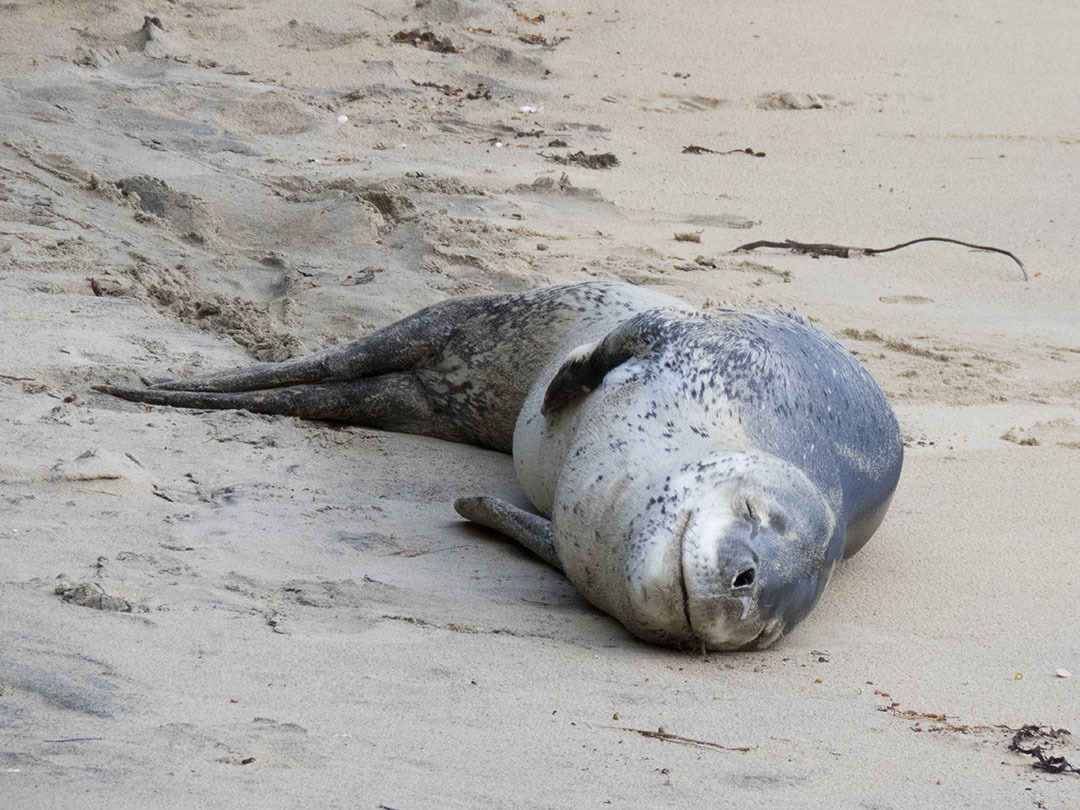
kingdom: Animalia
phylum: Chordata
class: Mammalia
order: Carnivora
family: Phocidae
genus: Hydrurga
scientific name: Hydrurga leptonyx
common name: Leopard seal
